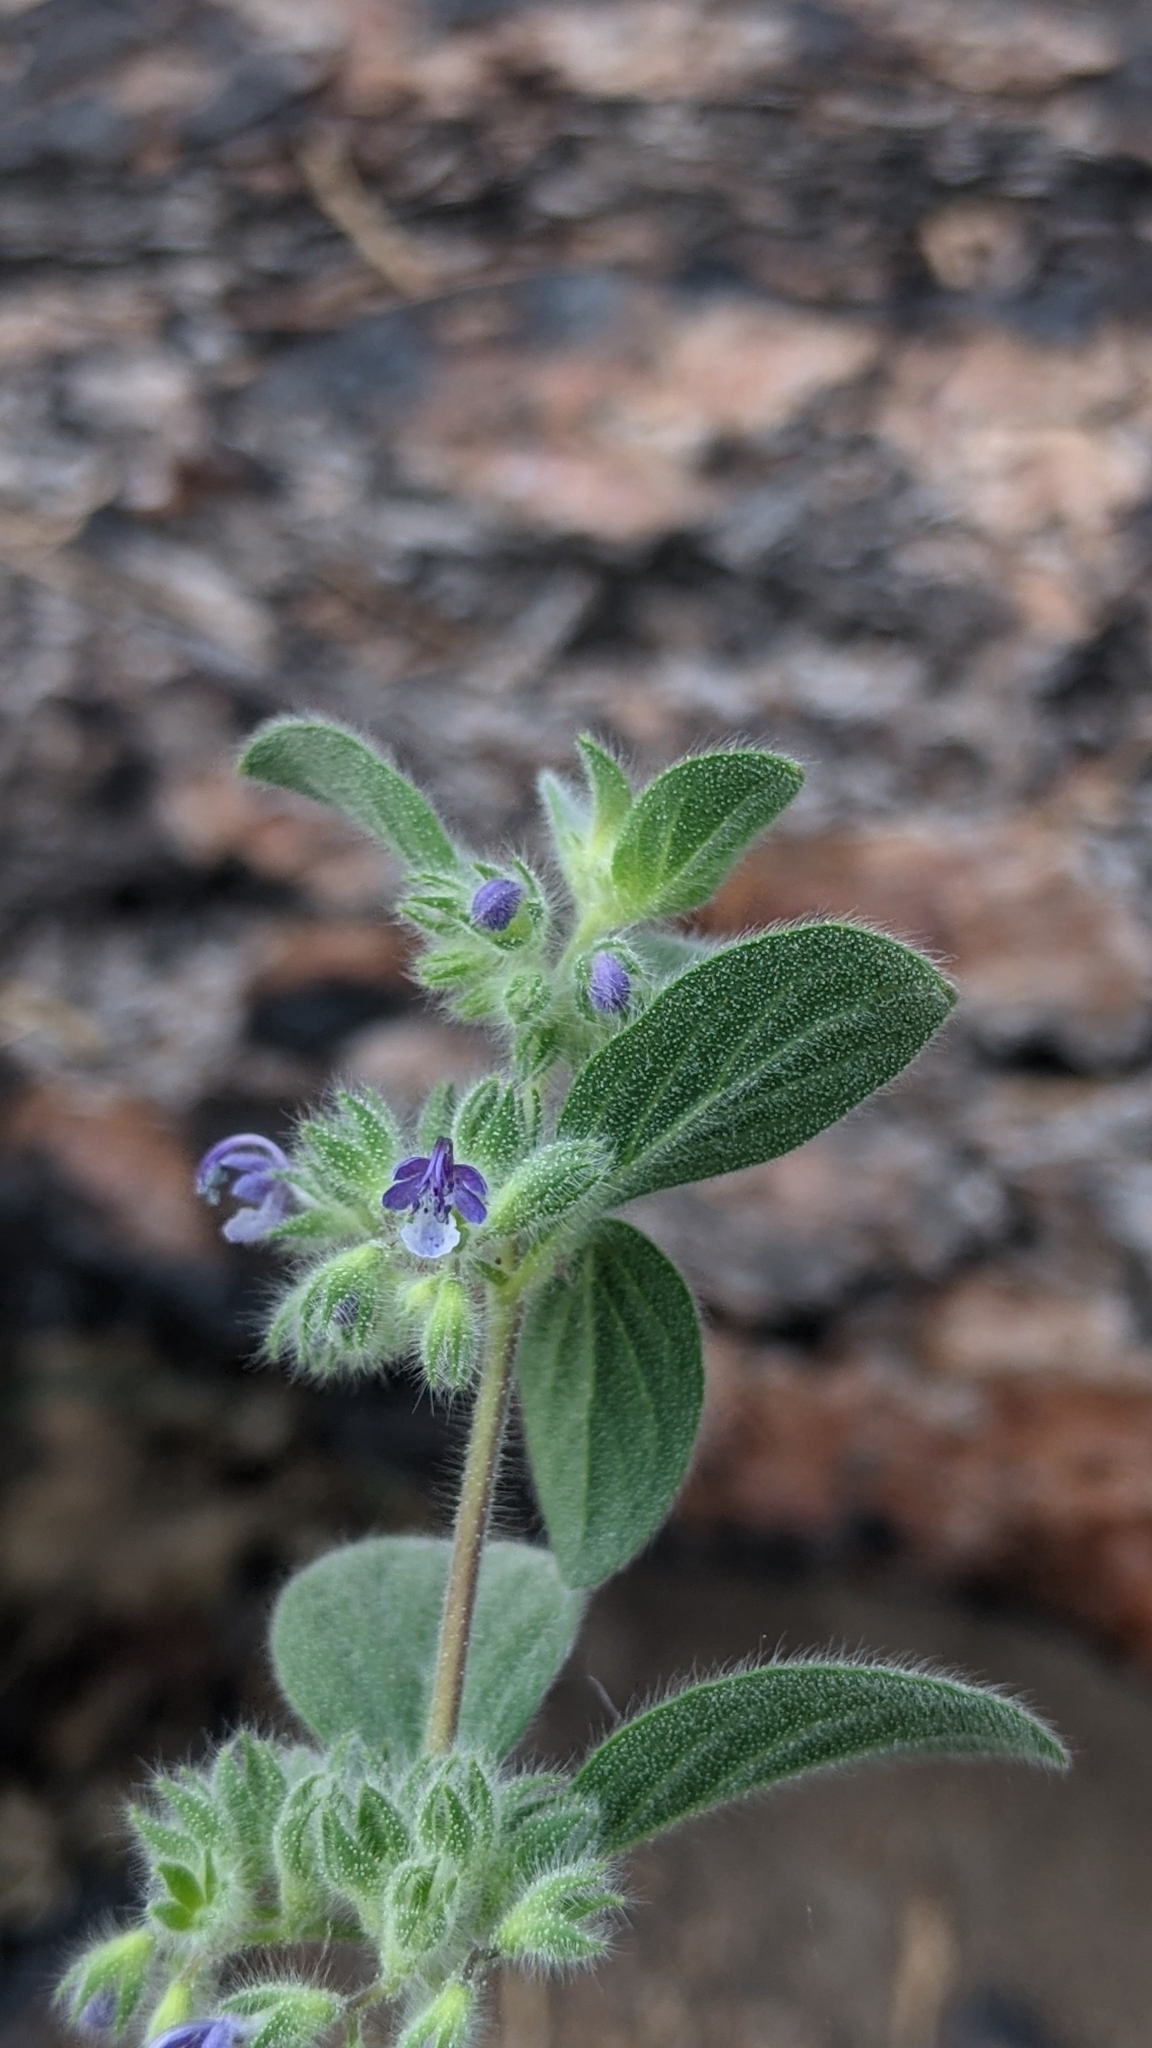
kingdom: Plantae
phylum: Tracheophyta
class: Magnoliopsida
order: Lamiales
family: Lamiaceae
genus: Trichostema
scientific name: Trichostema oblongum
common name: Mountain bluecurls
